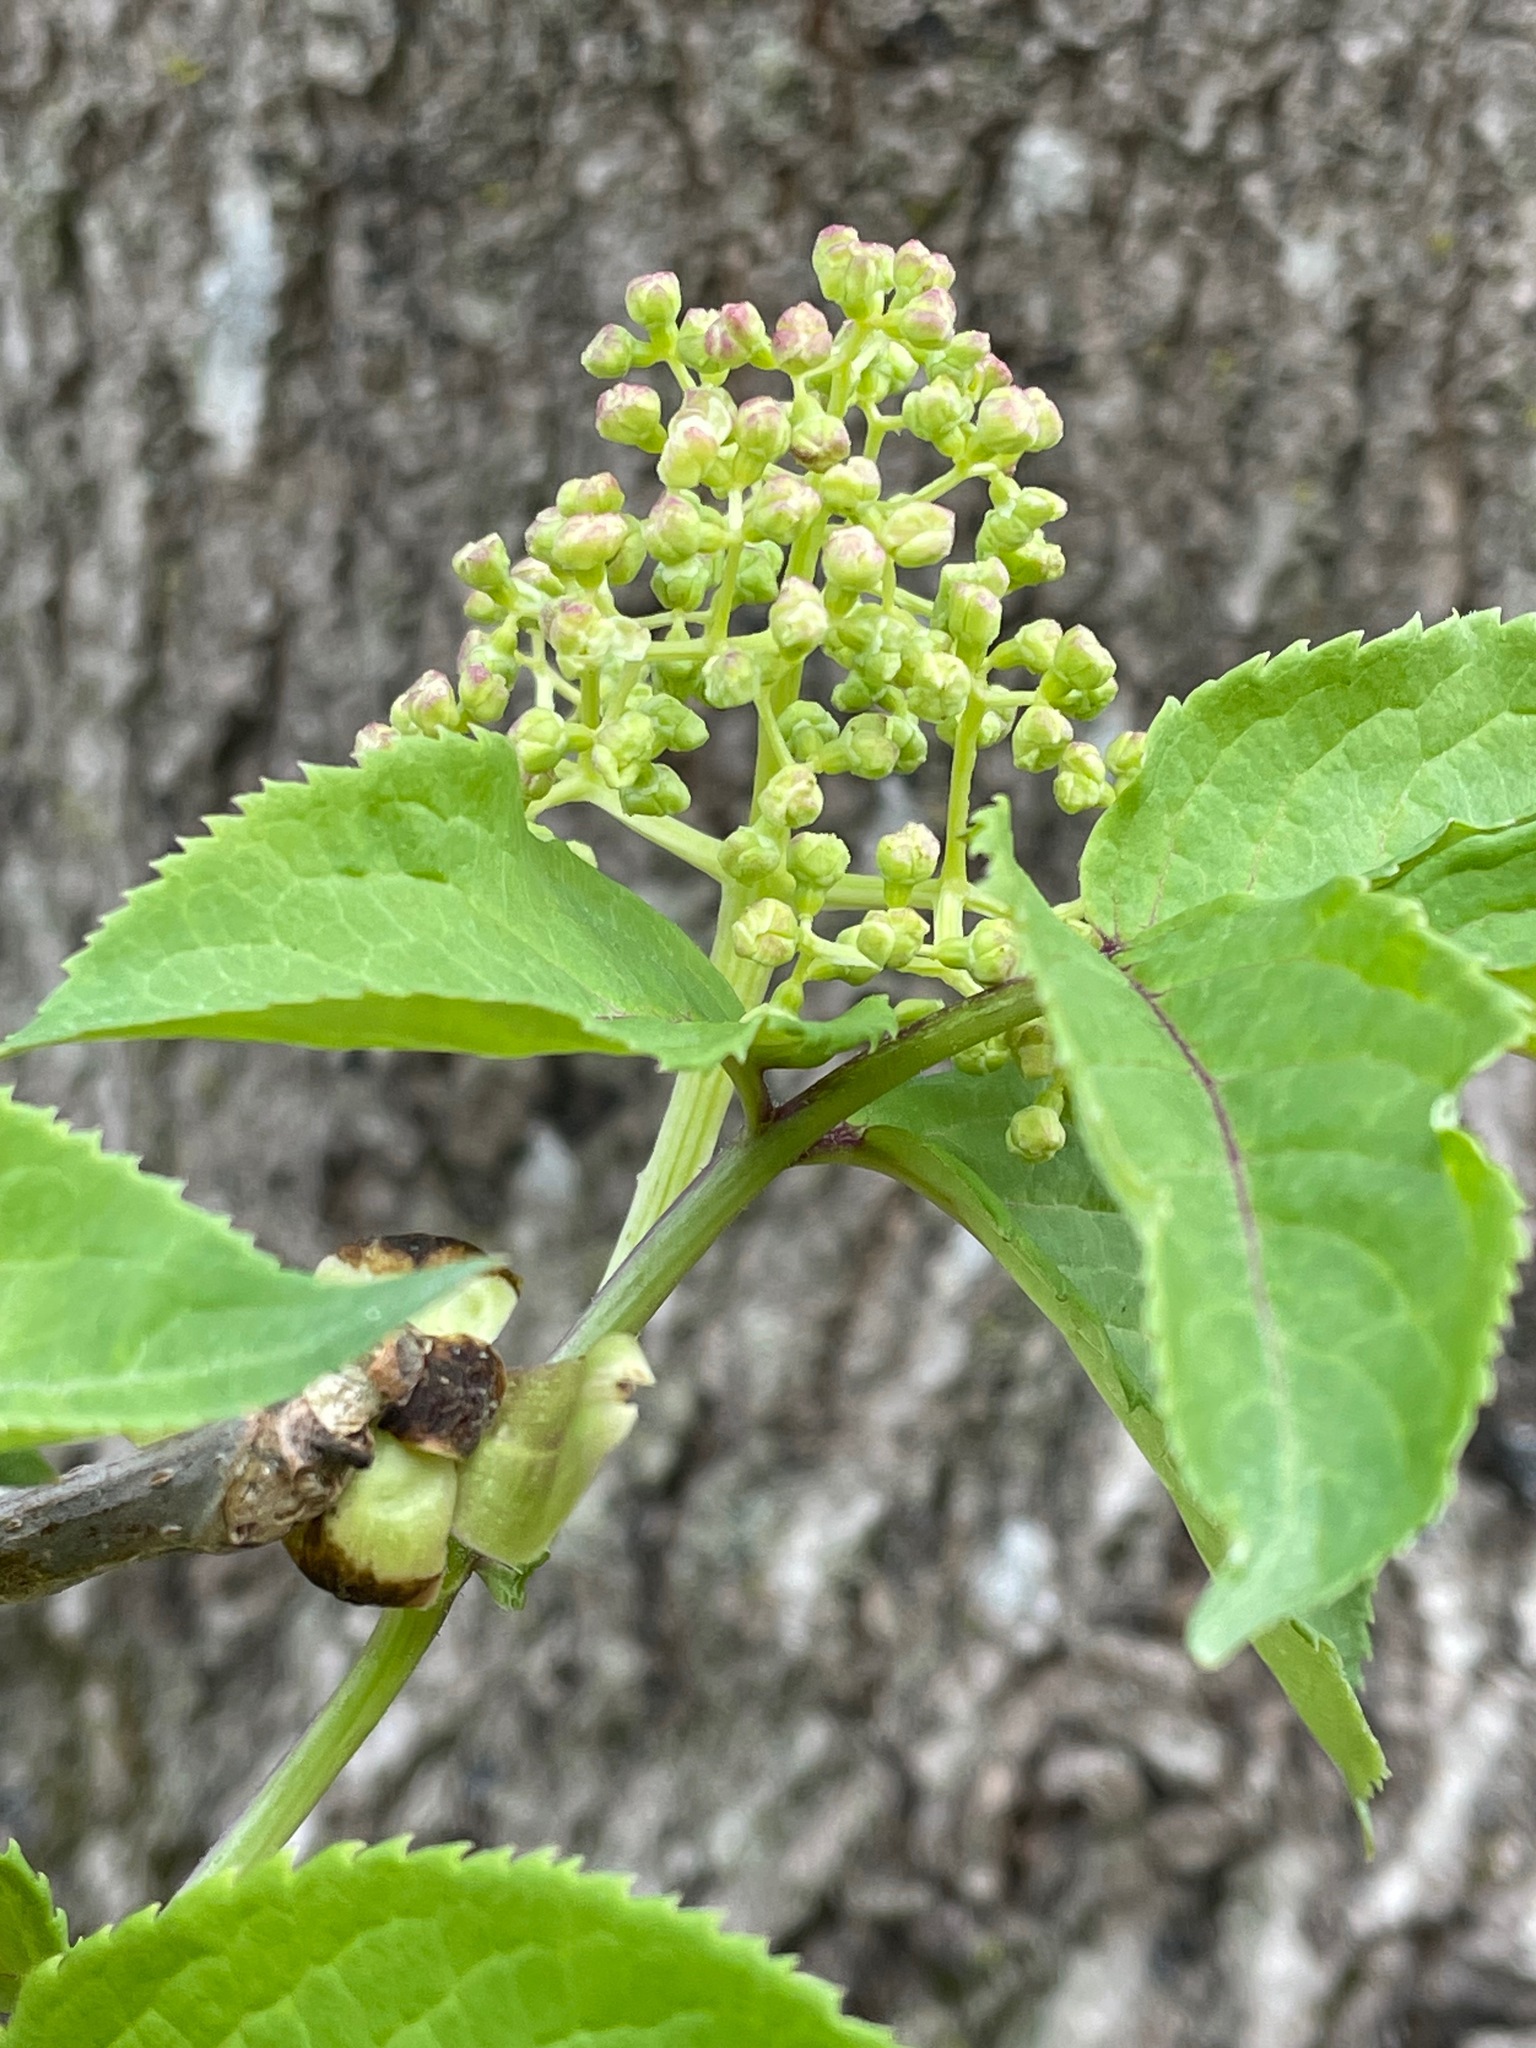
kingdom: Plantae
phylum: Tracheophyta
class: Magnoliopsida
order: Dipsacales
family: Viburnaceae
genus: Sambucus
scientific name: Sambucus racemosa
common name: Red-berried elder
